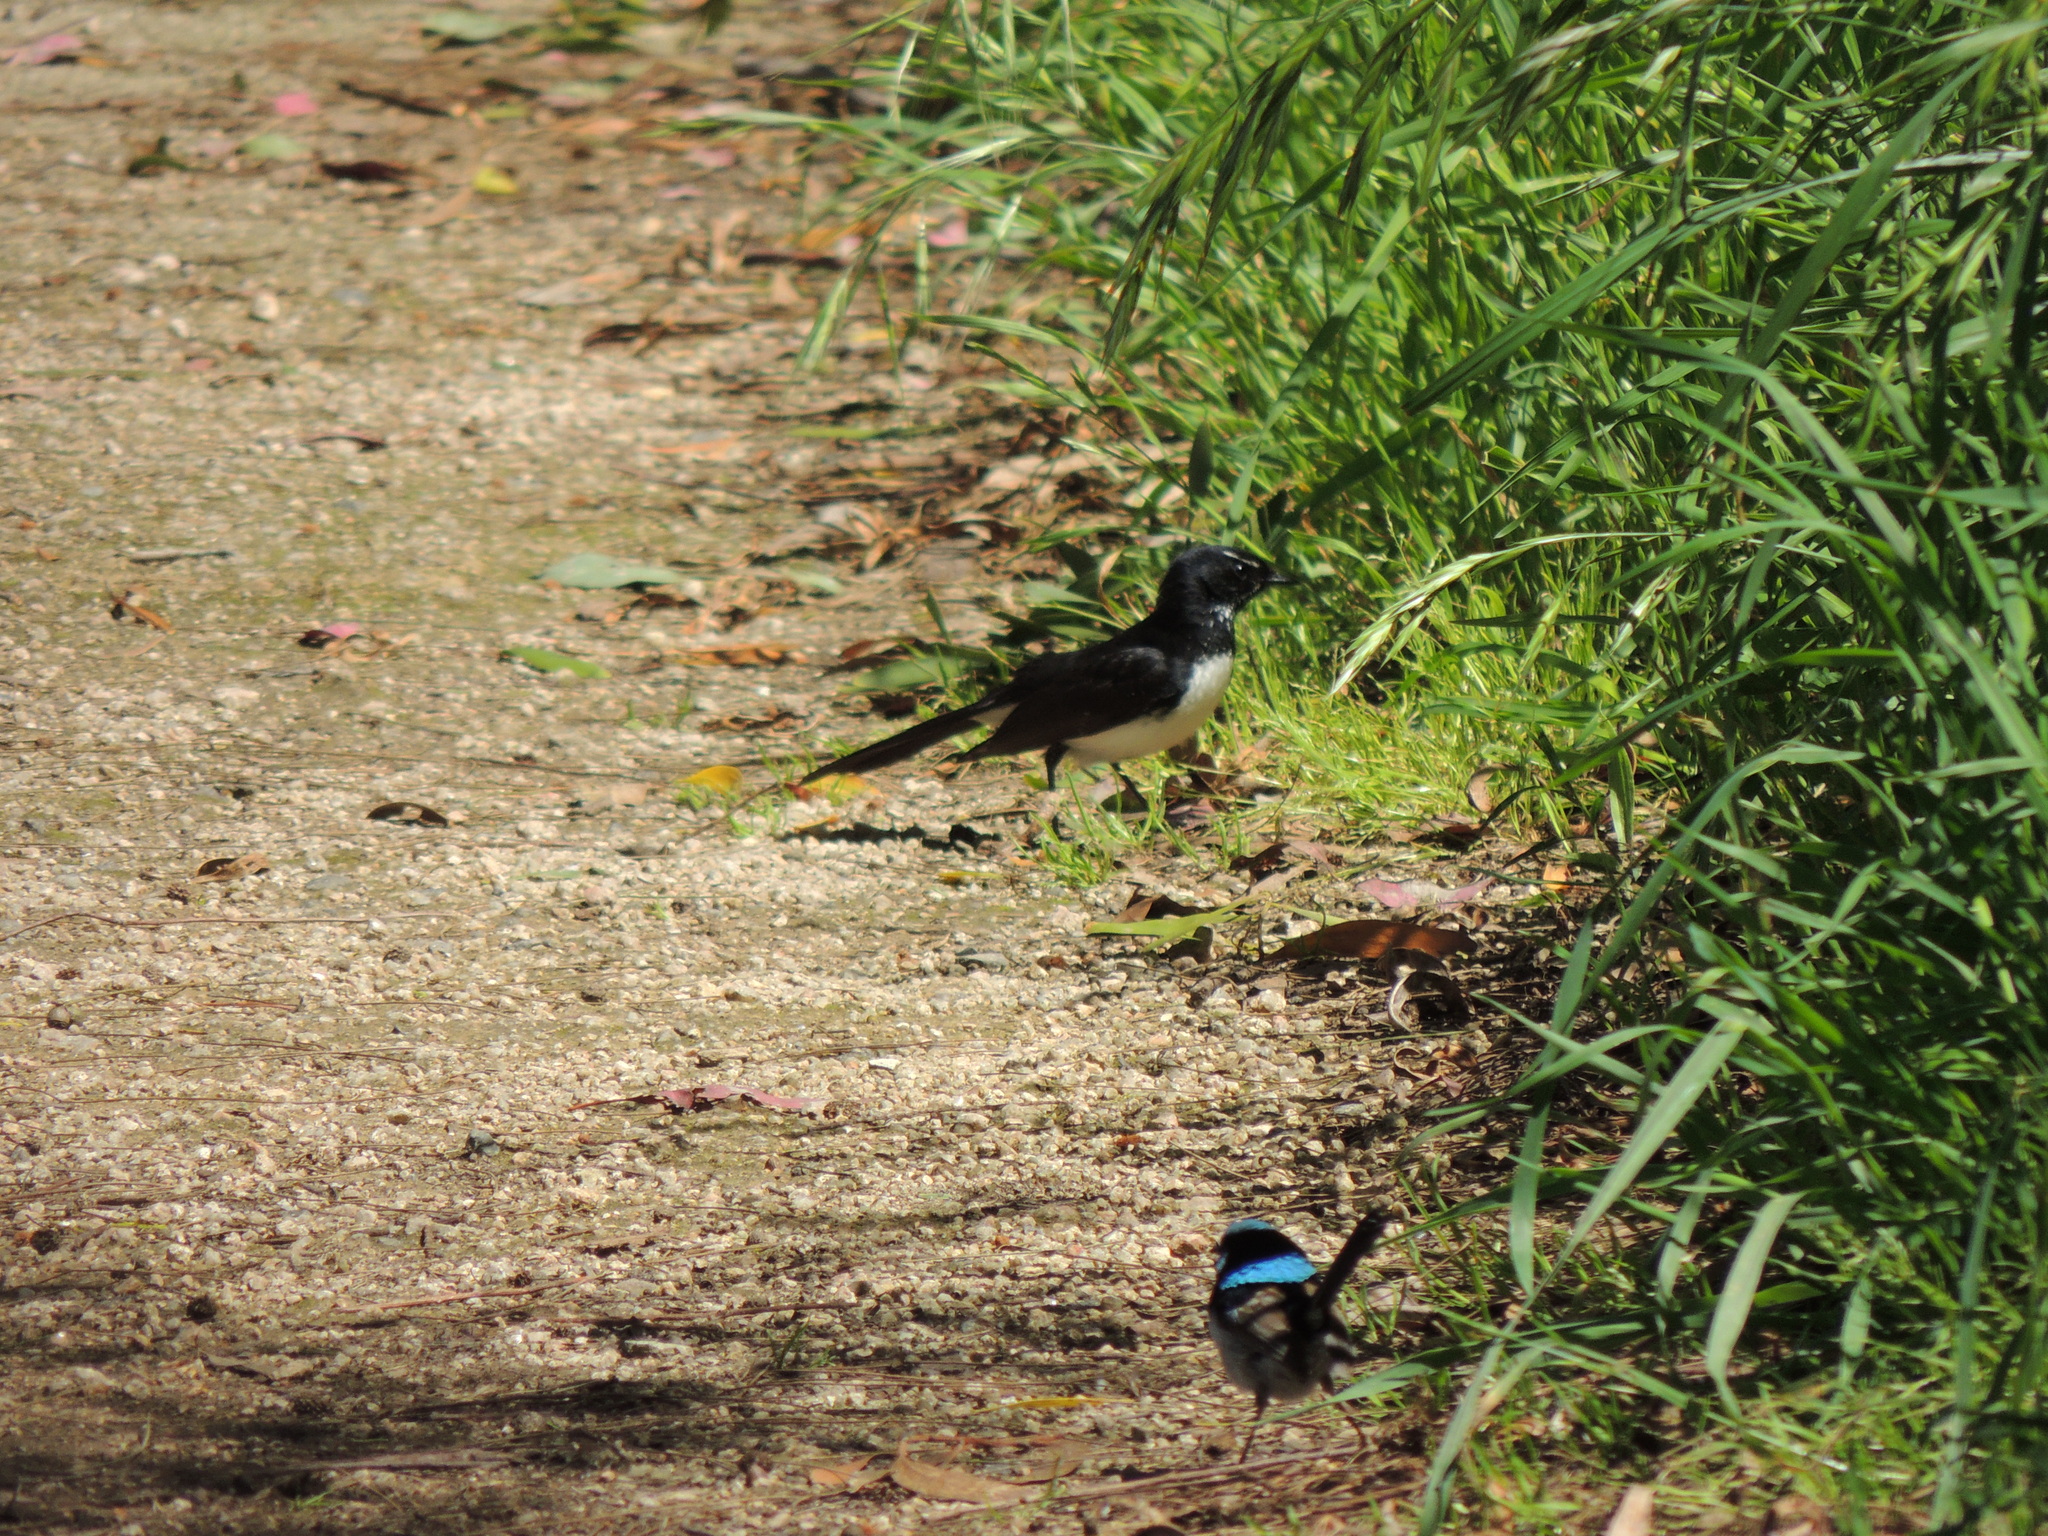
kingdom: Animalia
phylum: Chordata
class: Aves
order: Passeriformes
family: Maluridae
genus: Malurus
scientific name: Malurus cyaneus
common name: Superb fairywren
